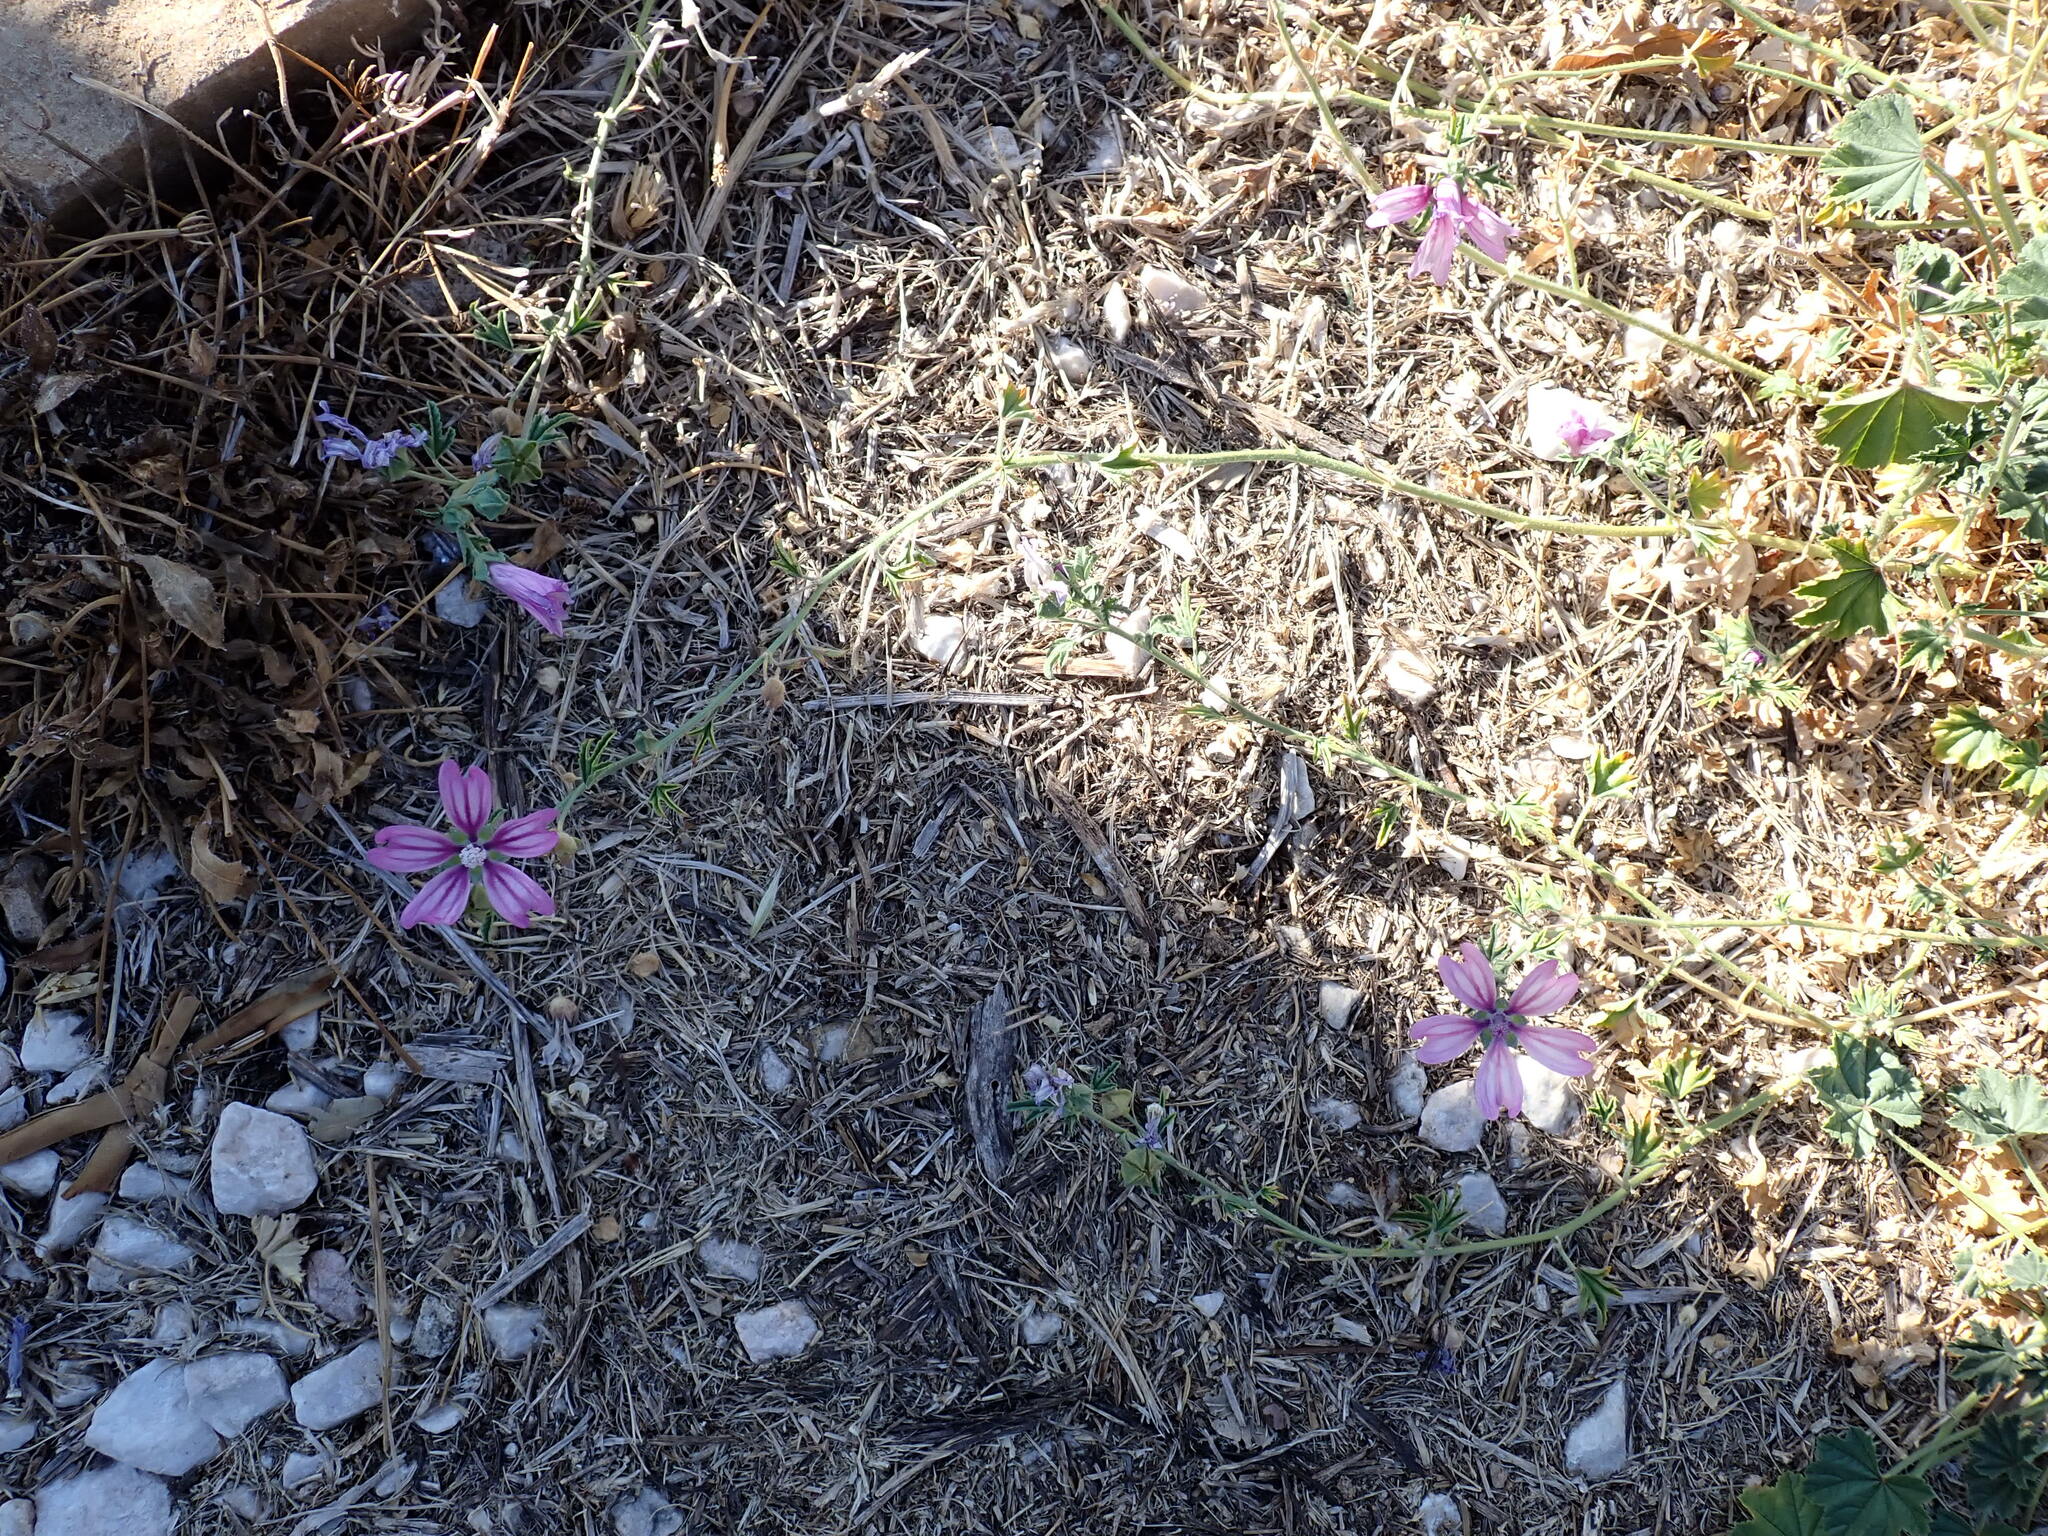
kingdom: Plantae
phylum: Tracheophyta
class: Magnoliopsida
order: Malvales
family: Malvaceae
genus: Malva
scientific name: Malva sylvestris
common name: Common mallow
